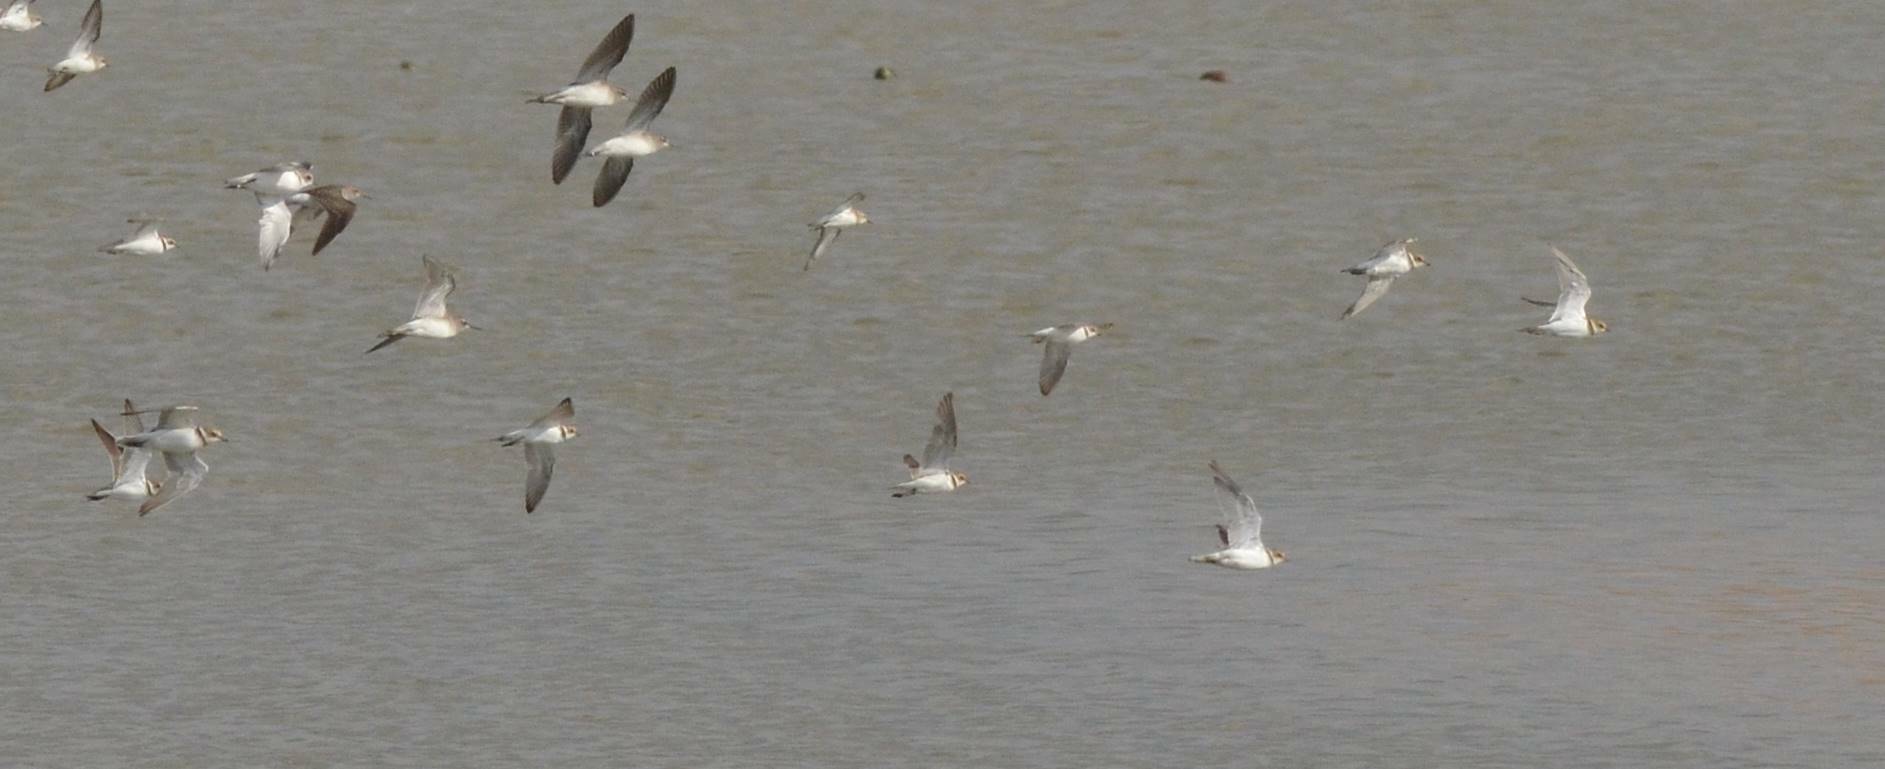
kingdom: Animalia
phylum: Chordata
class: Aves
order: Charadriiformes
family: Charadriidae
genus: Charadrius
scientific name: Charadrius hiaticula
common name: Common ringed plover
